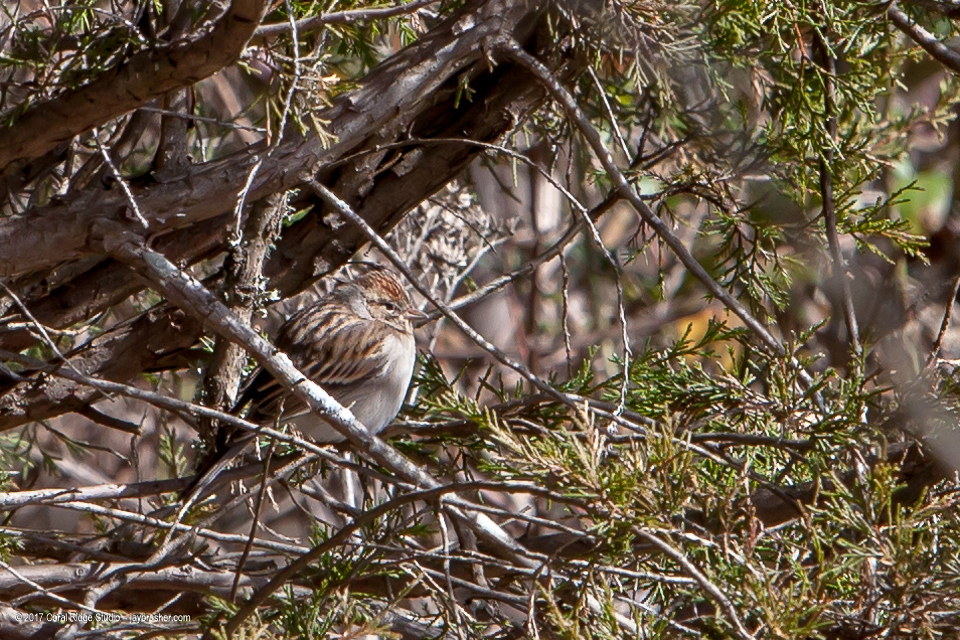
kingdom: Animalia
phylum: Chordata
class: Aves
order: Passeriformes
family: Passerellidae
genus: Spizella
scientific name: Spizella passerina
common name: Chipping sparrow
